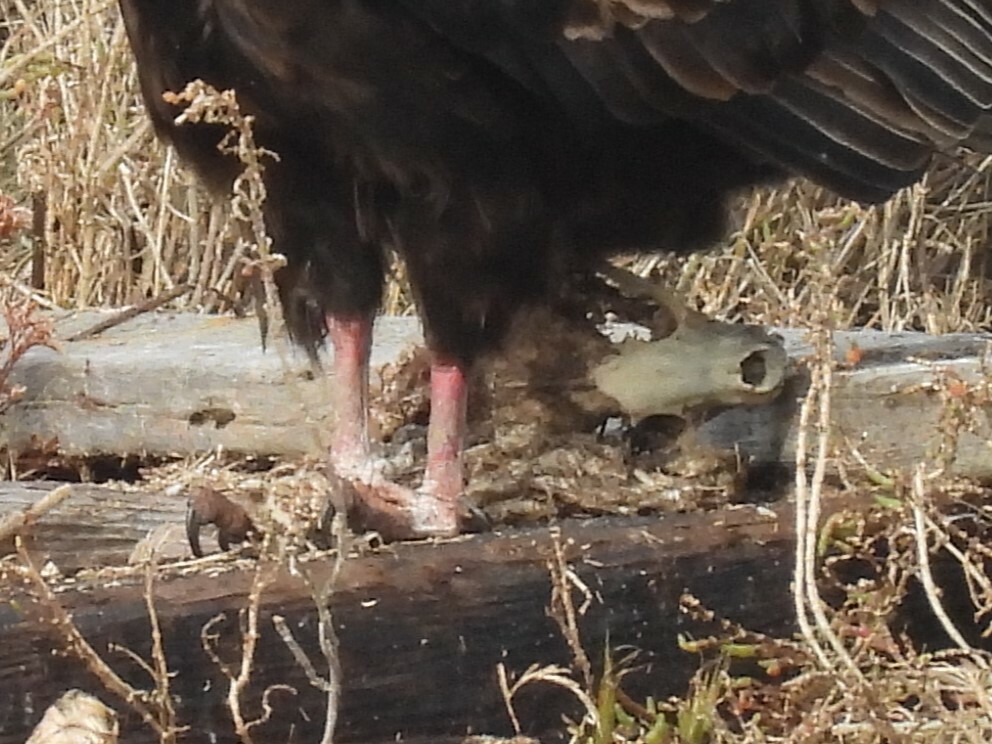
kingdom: Animalia
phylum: Chordata
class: Mammalia
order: Carnivora
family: Procyonidae
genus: Procyon
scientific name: Procyon lotor
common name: Raccoon
